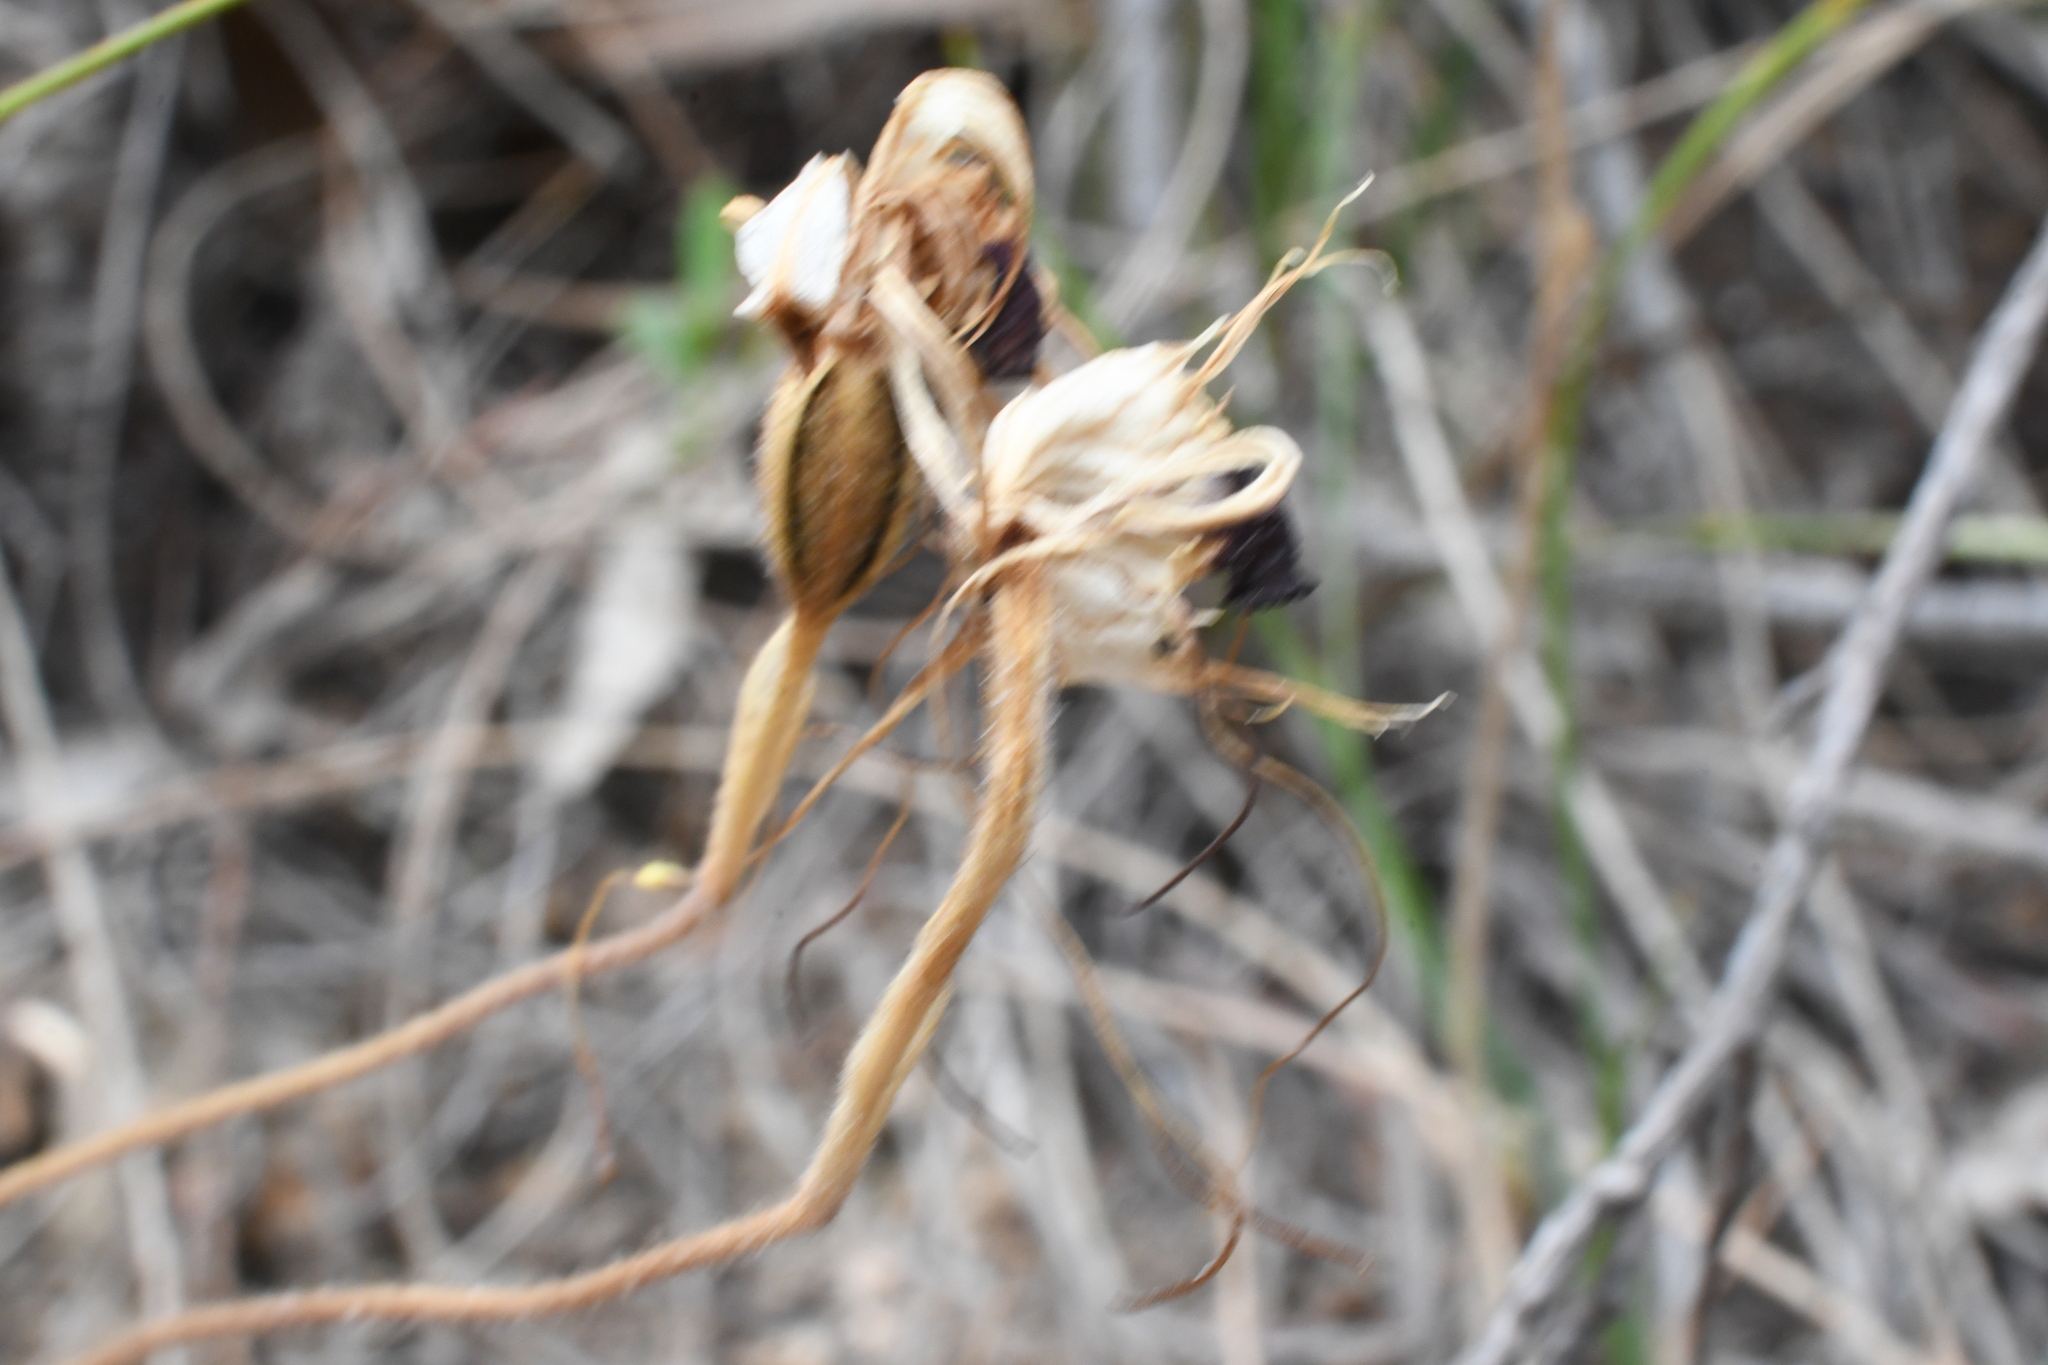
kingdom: Plantae
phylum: Tracheophyta
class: Liliopsida
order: Asparagales
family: Orchidaceae
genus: Caladenia
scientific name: Caladenia tentaculata
